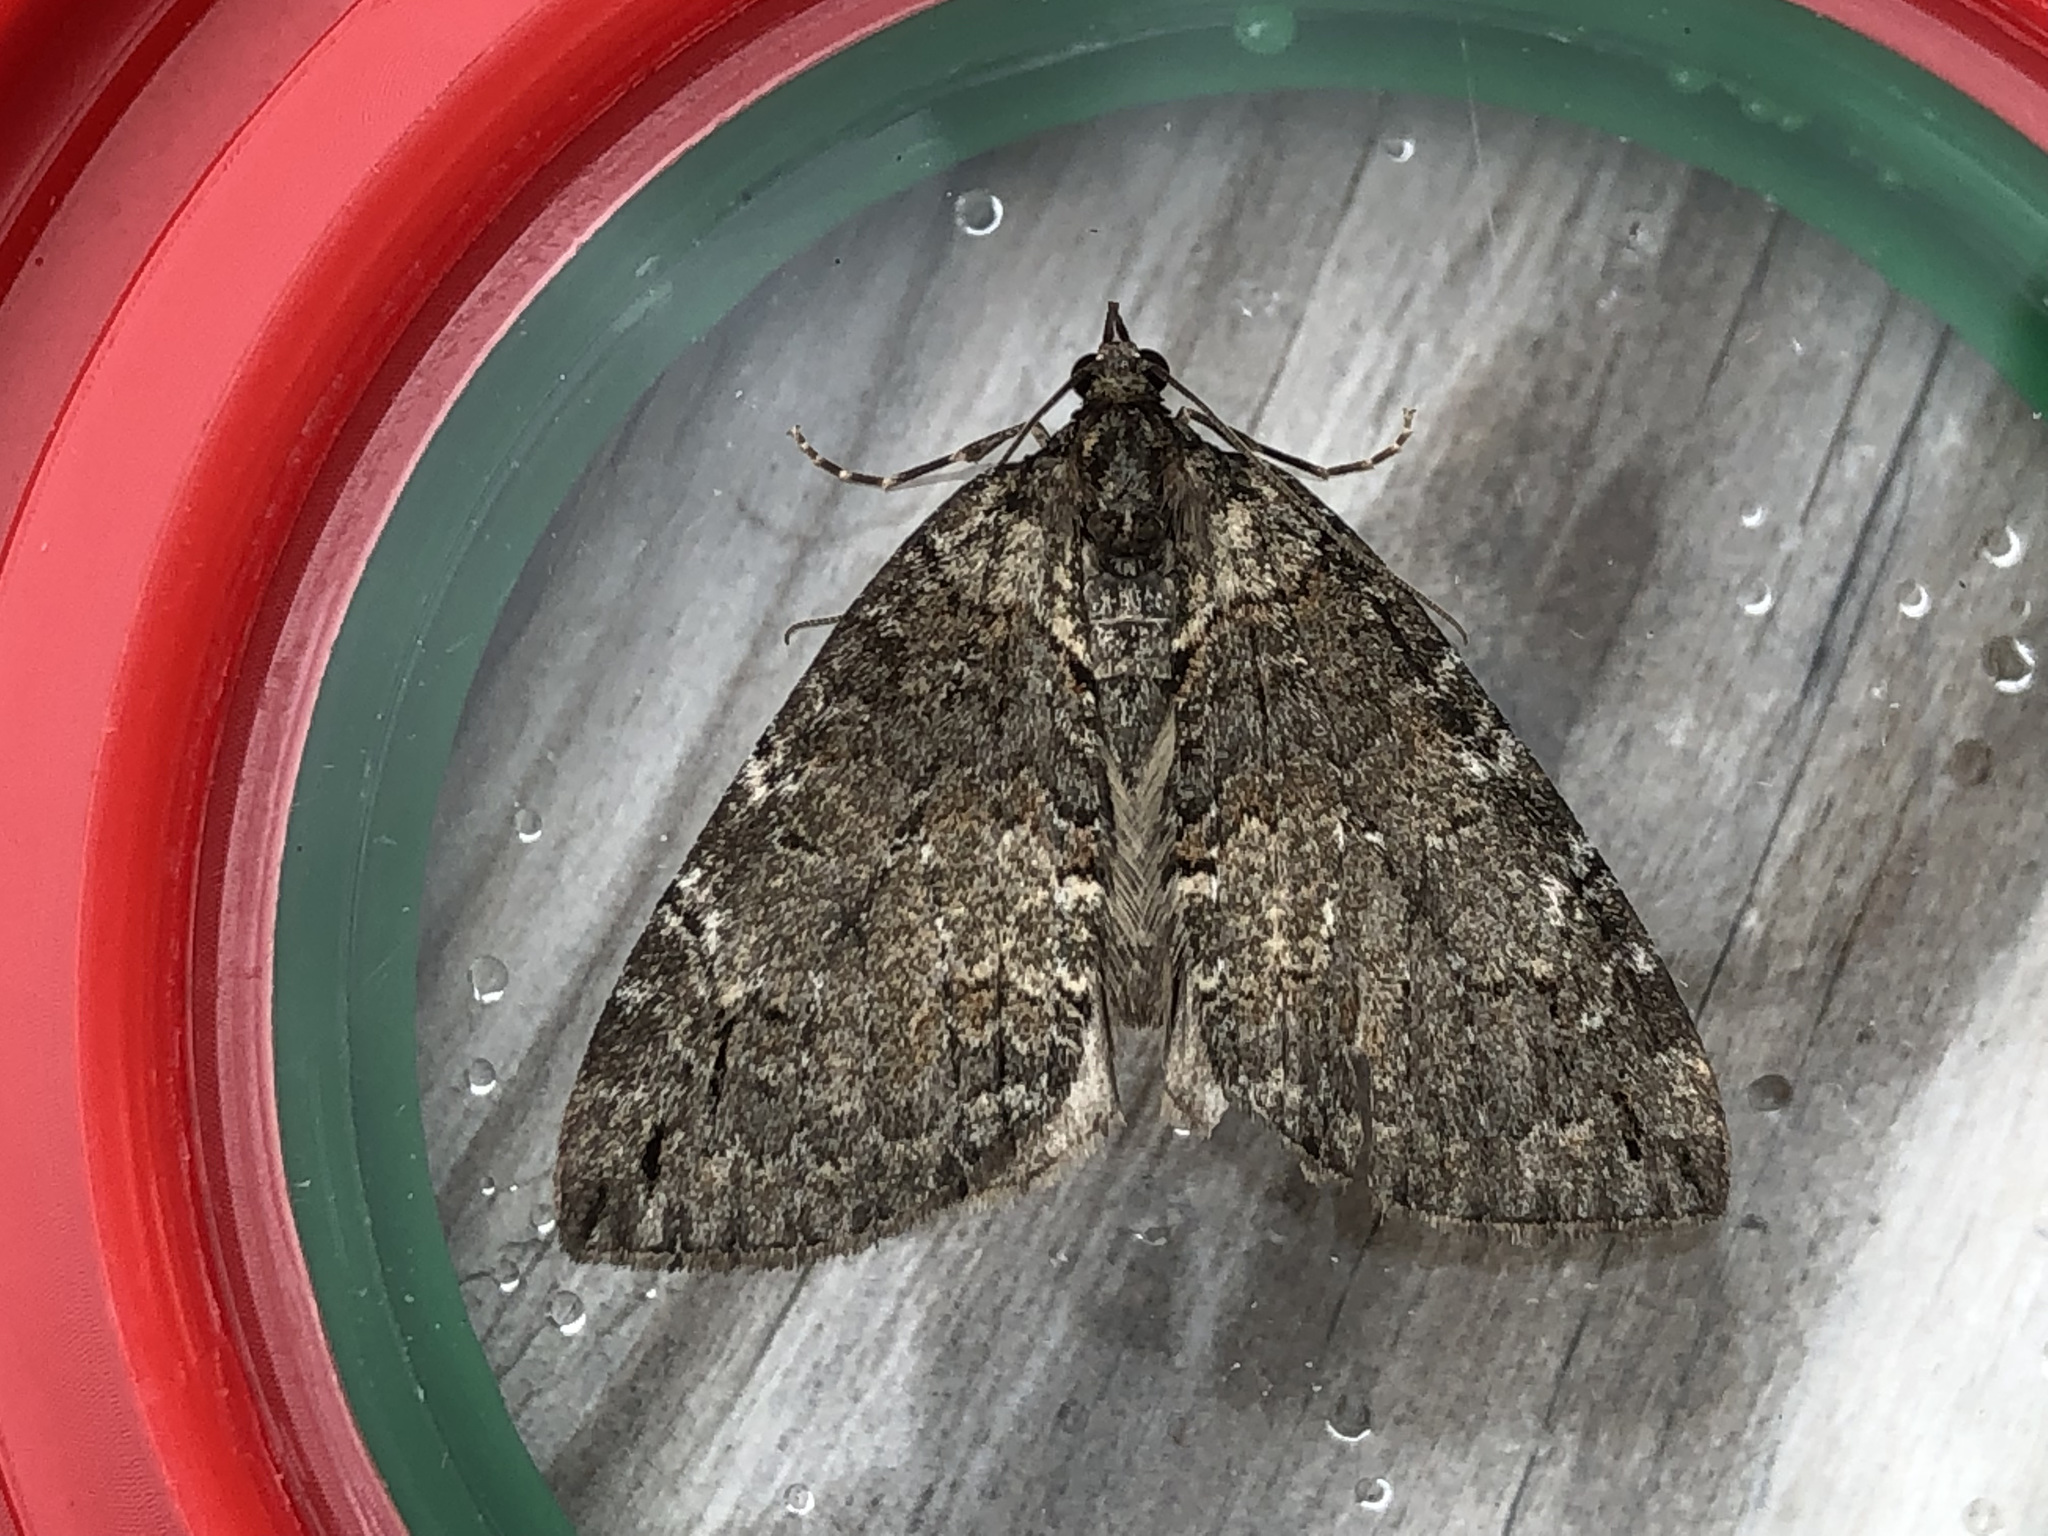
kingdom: Animalia
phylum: Arthropoda
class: Insecta
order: Lepidoptera
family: Geometridae
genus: Hydriomena
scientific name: Hydriomena ruberata
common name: Ruddy highflyer
